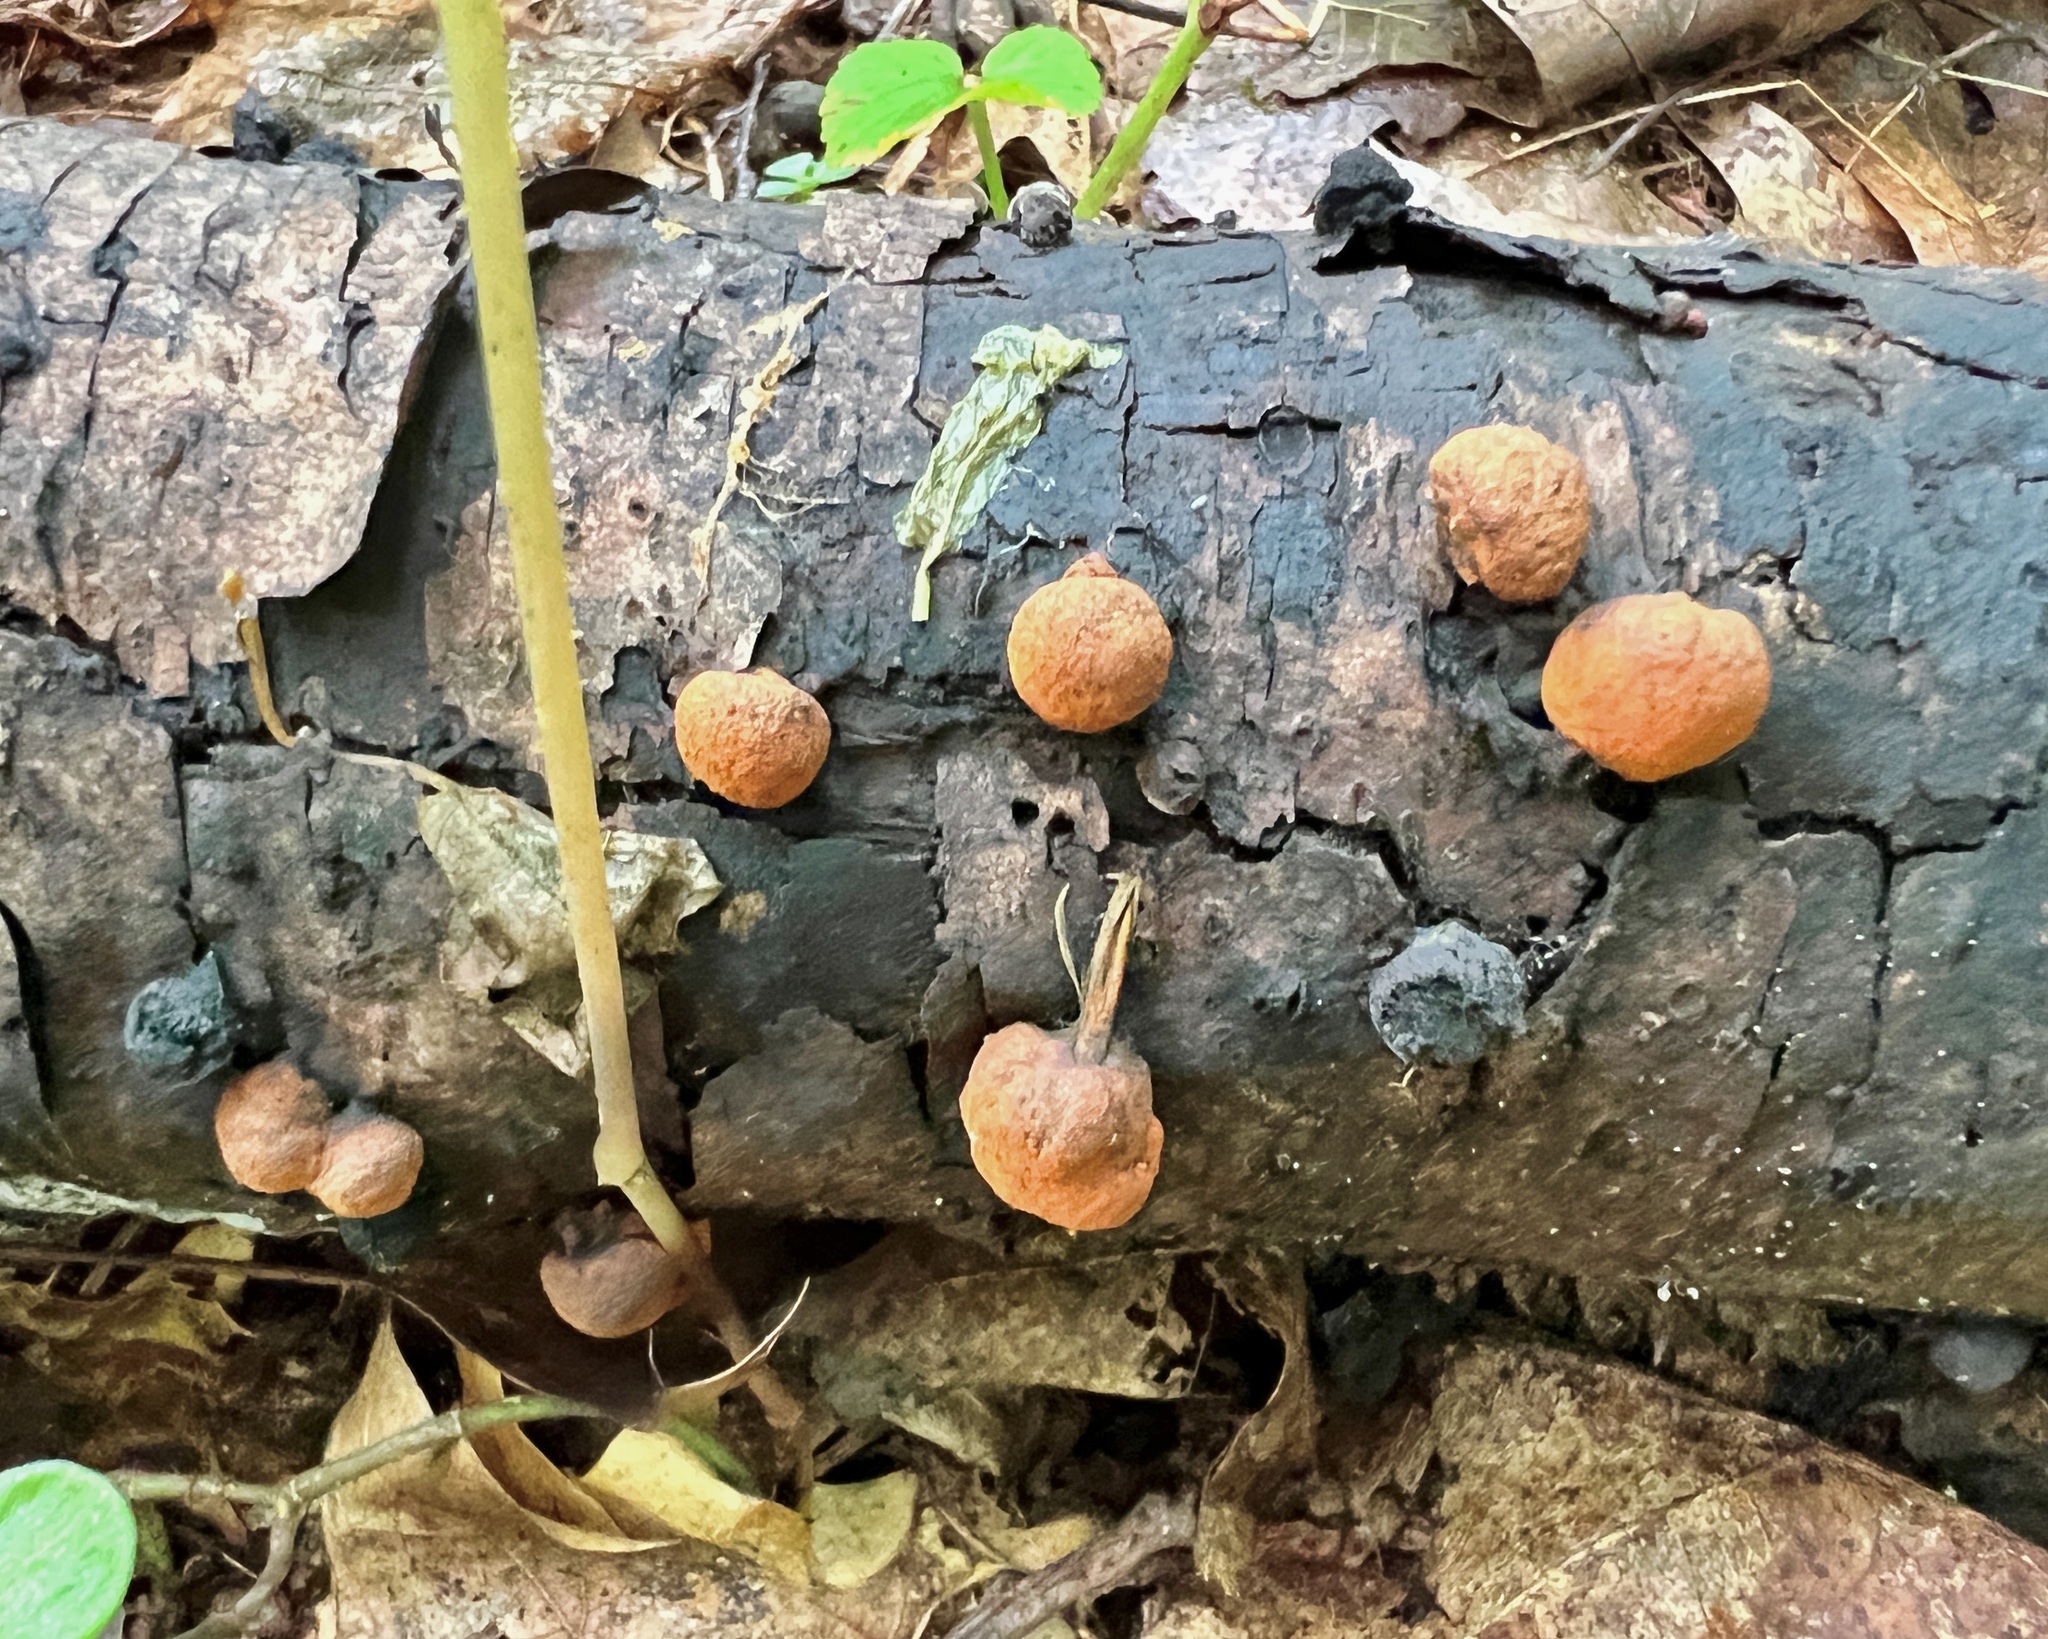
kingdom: Fungi
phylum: Ascomycota
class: Sordariomycetes
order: Xylariales
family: Hypoxylaceae
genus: Hypoxylon
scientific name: Hypoxylon howeanum
